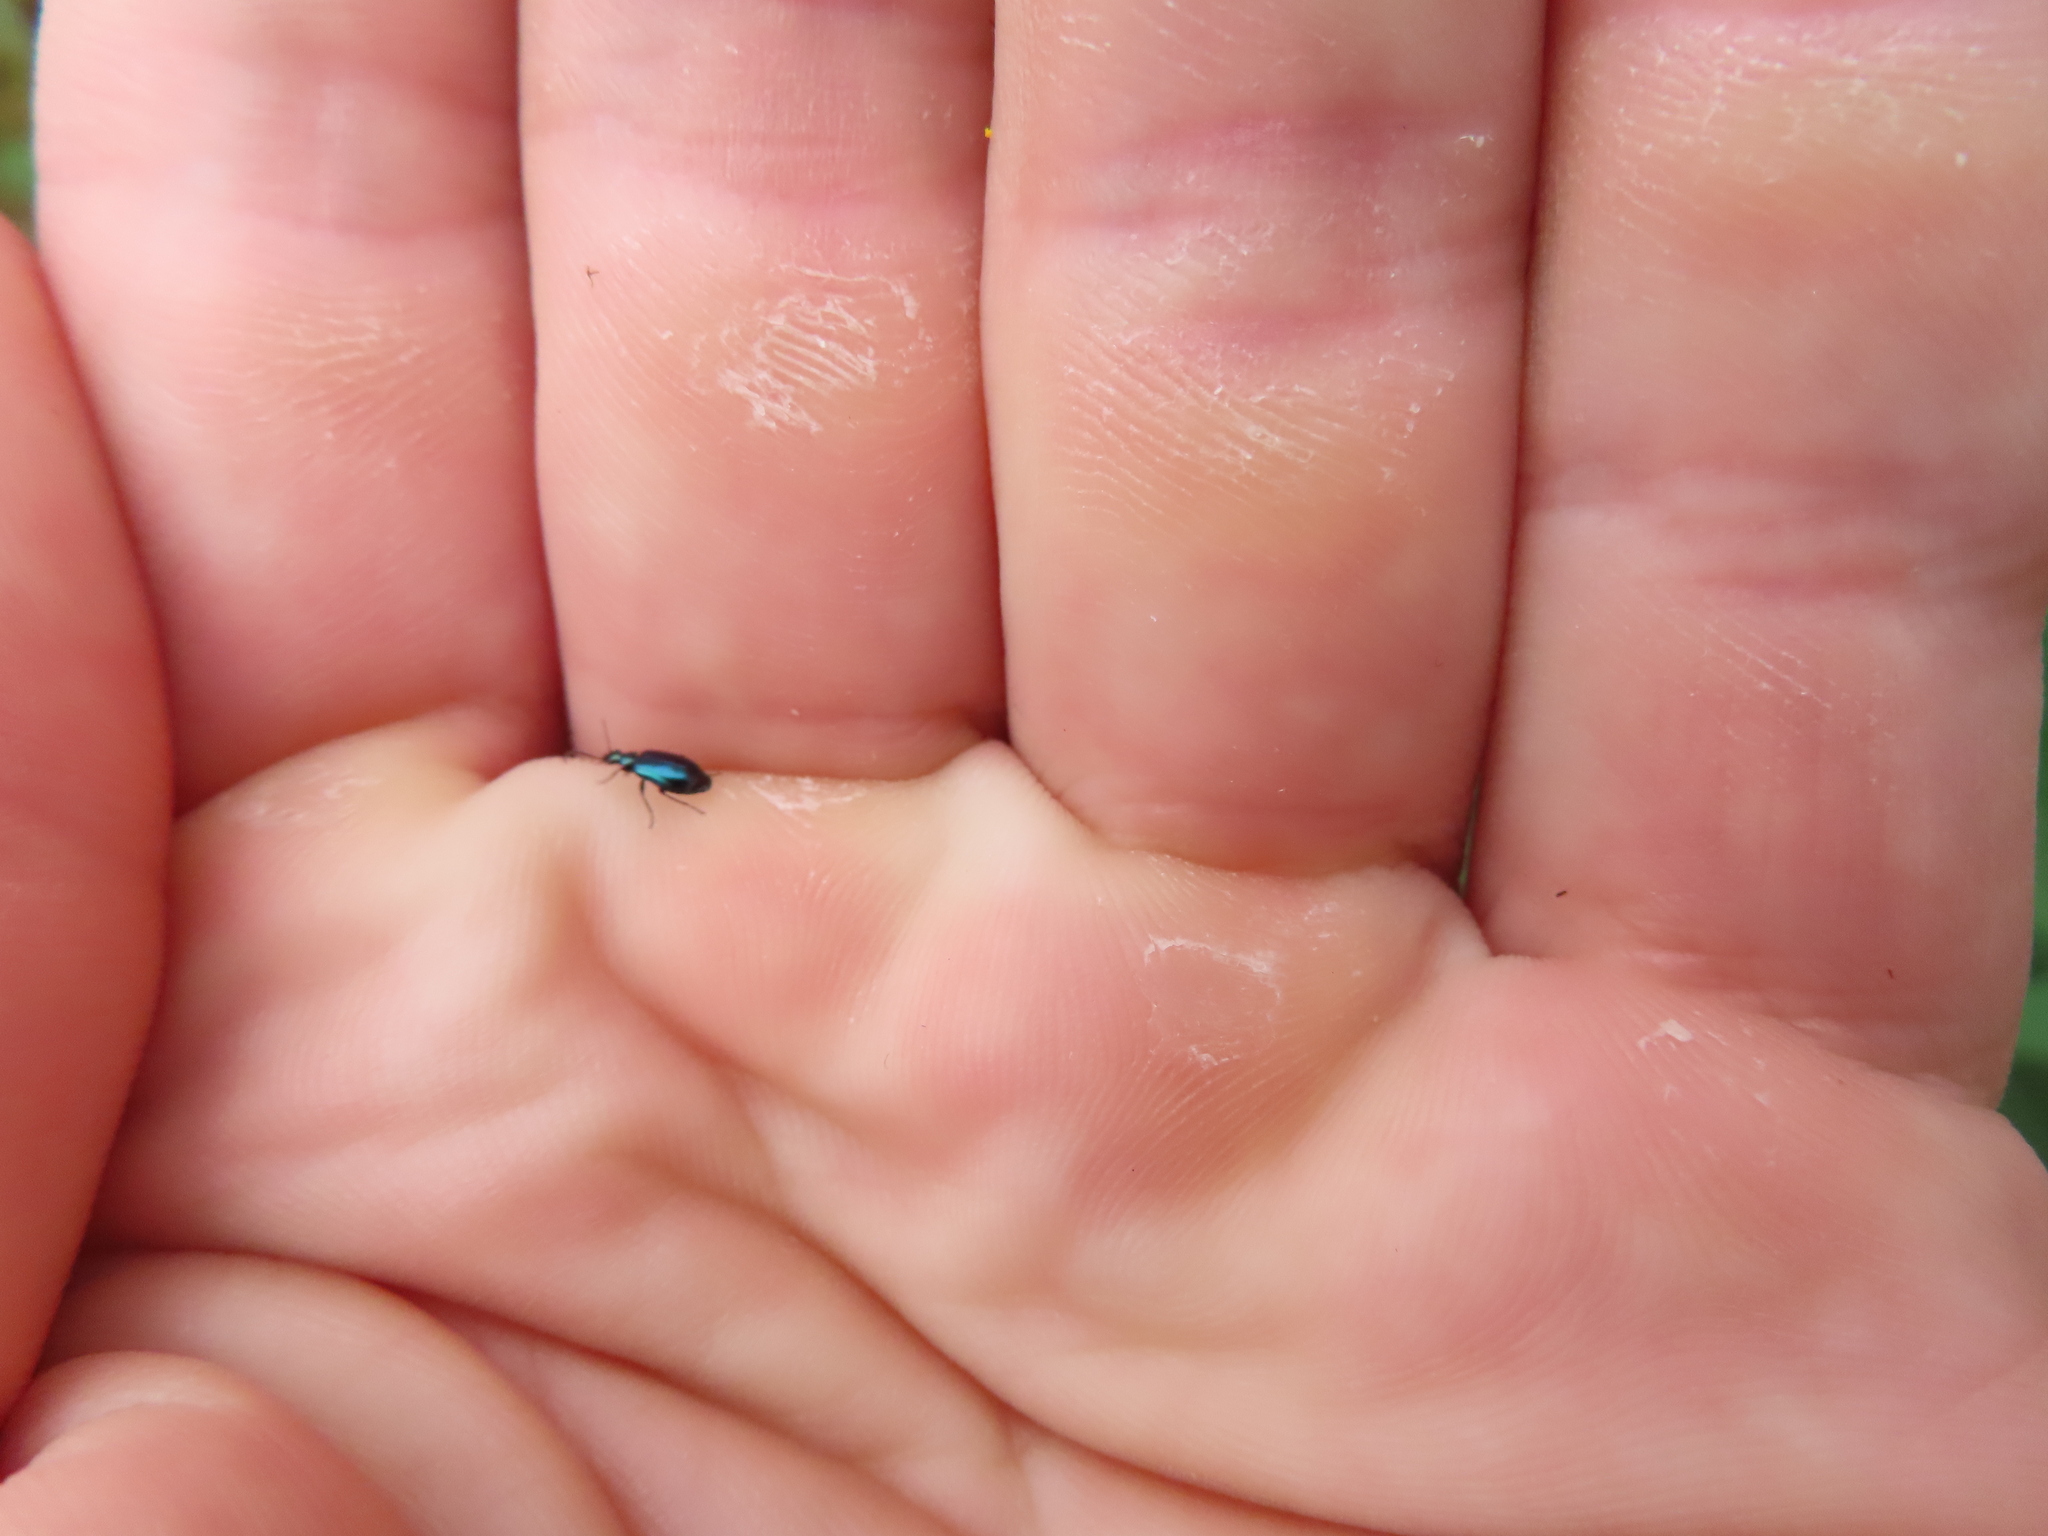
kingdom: Animalia
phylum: Arthropoda
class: Insecta
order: Coleoptera
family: Carabidae
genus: Lebia
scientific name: Lebia viridis
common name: Flower lebia beetle
